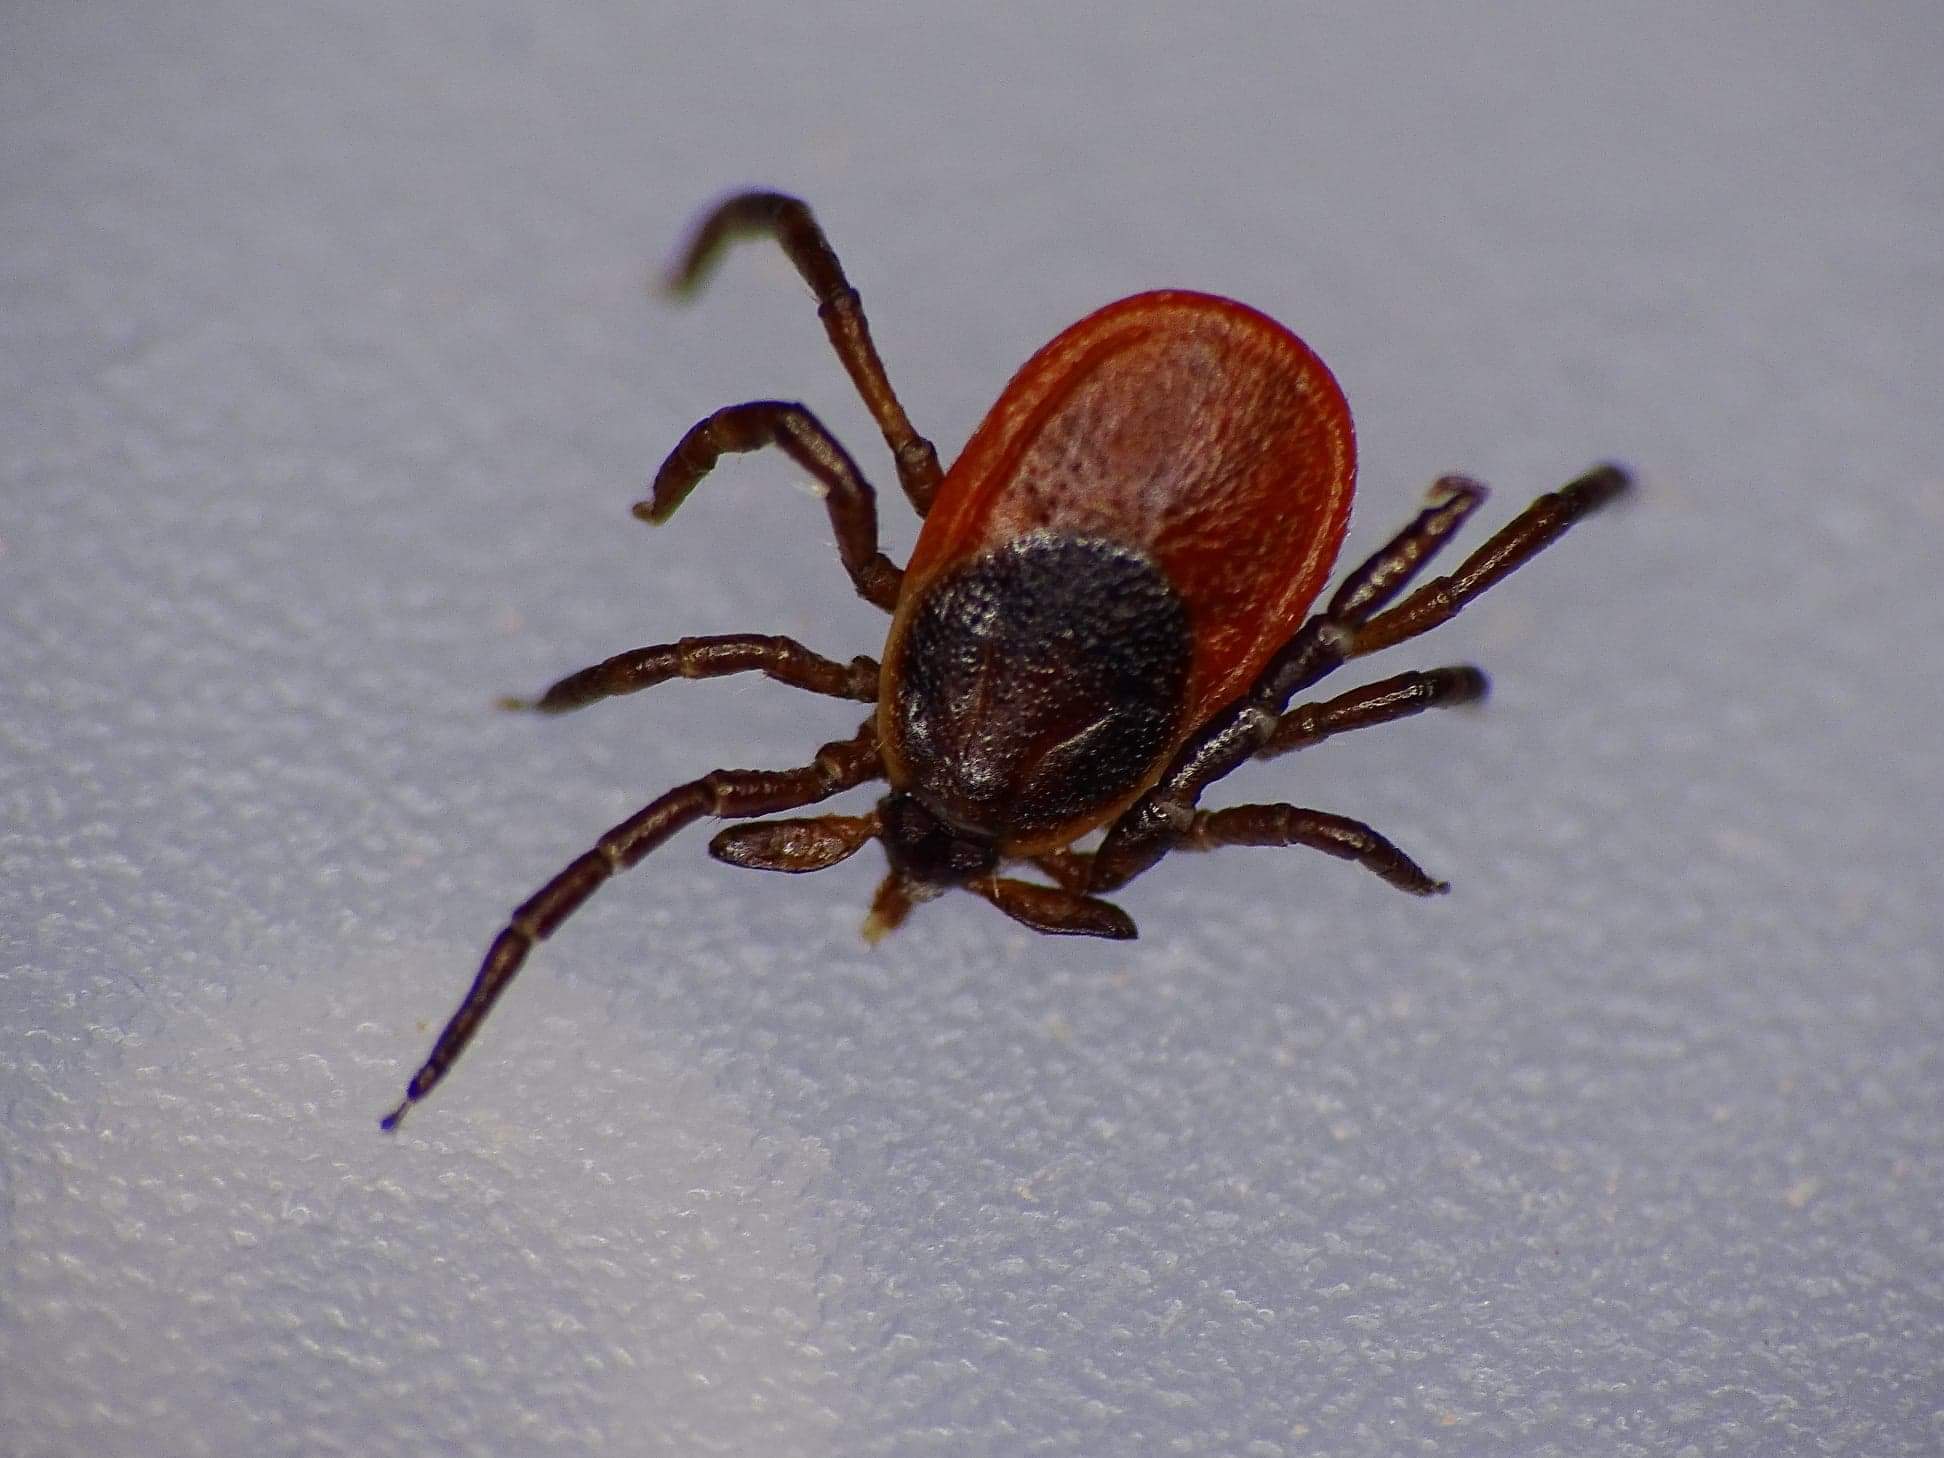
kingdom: Animalia
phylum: Arthropoda
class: Arachnida
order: Ixodida
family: Ixodidae
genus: Ixodes
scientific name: Ixodes scapularis
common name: Black legged tick
